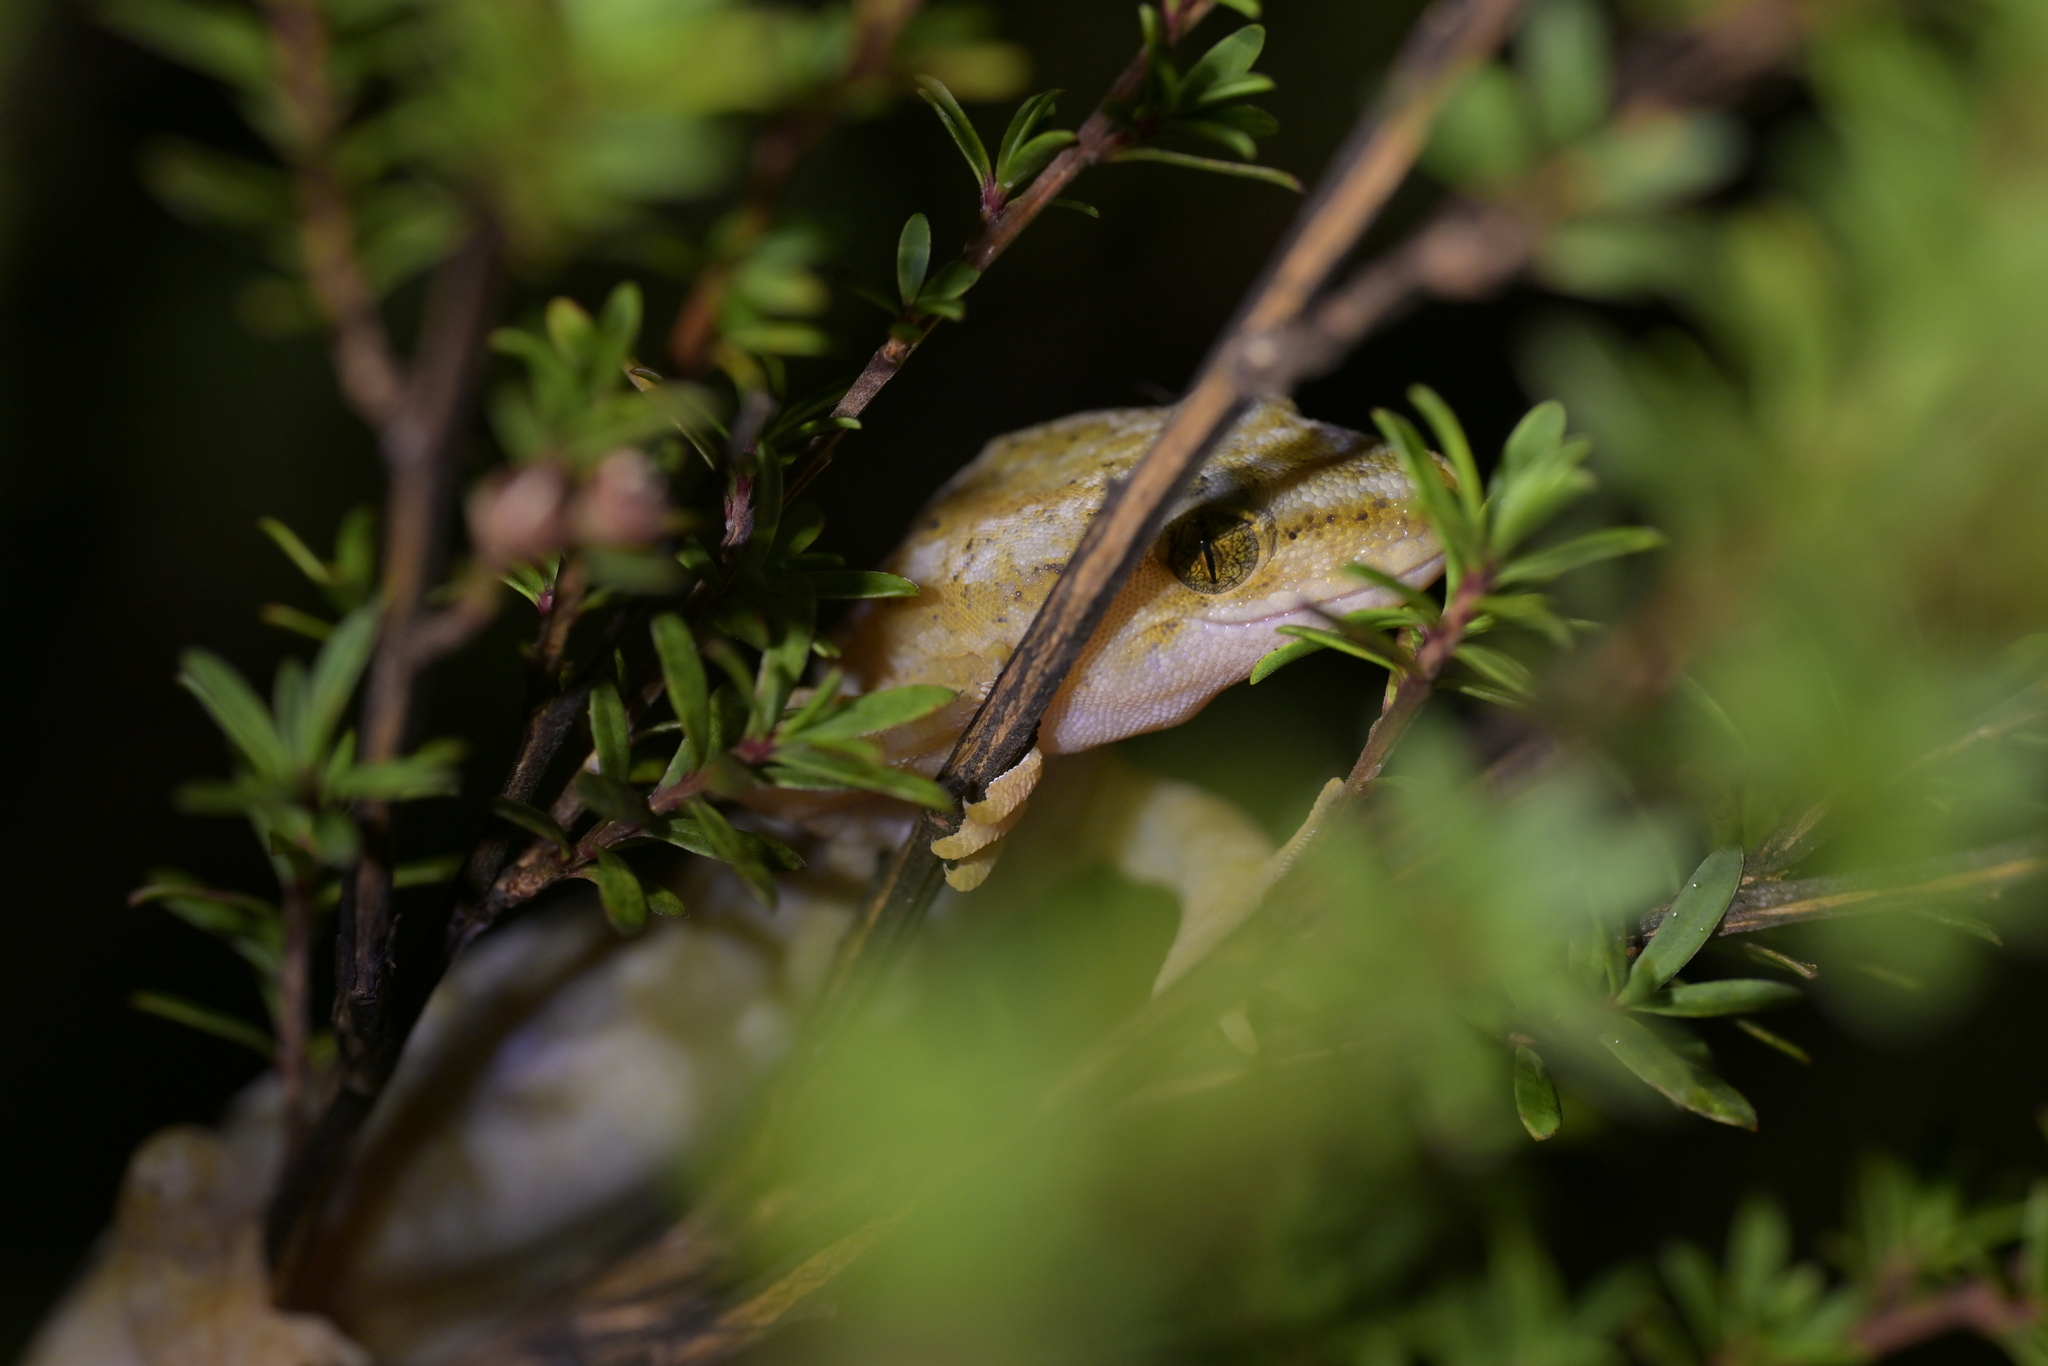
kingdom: Animalia
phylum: Chordata
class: Squamata
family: Diplodactylidae
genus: Woodworthia
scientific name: Woodworthia maculata
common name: Raukawa gecko
